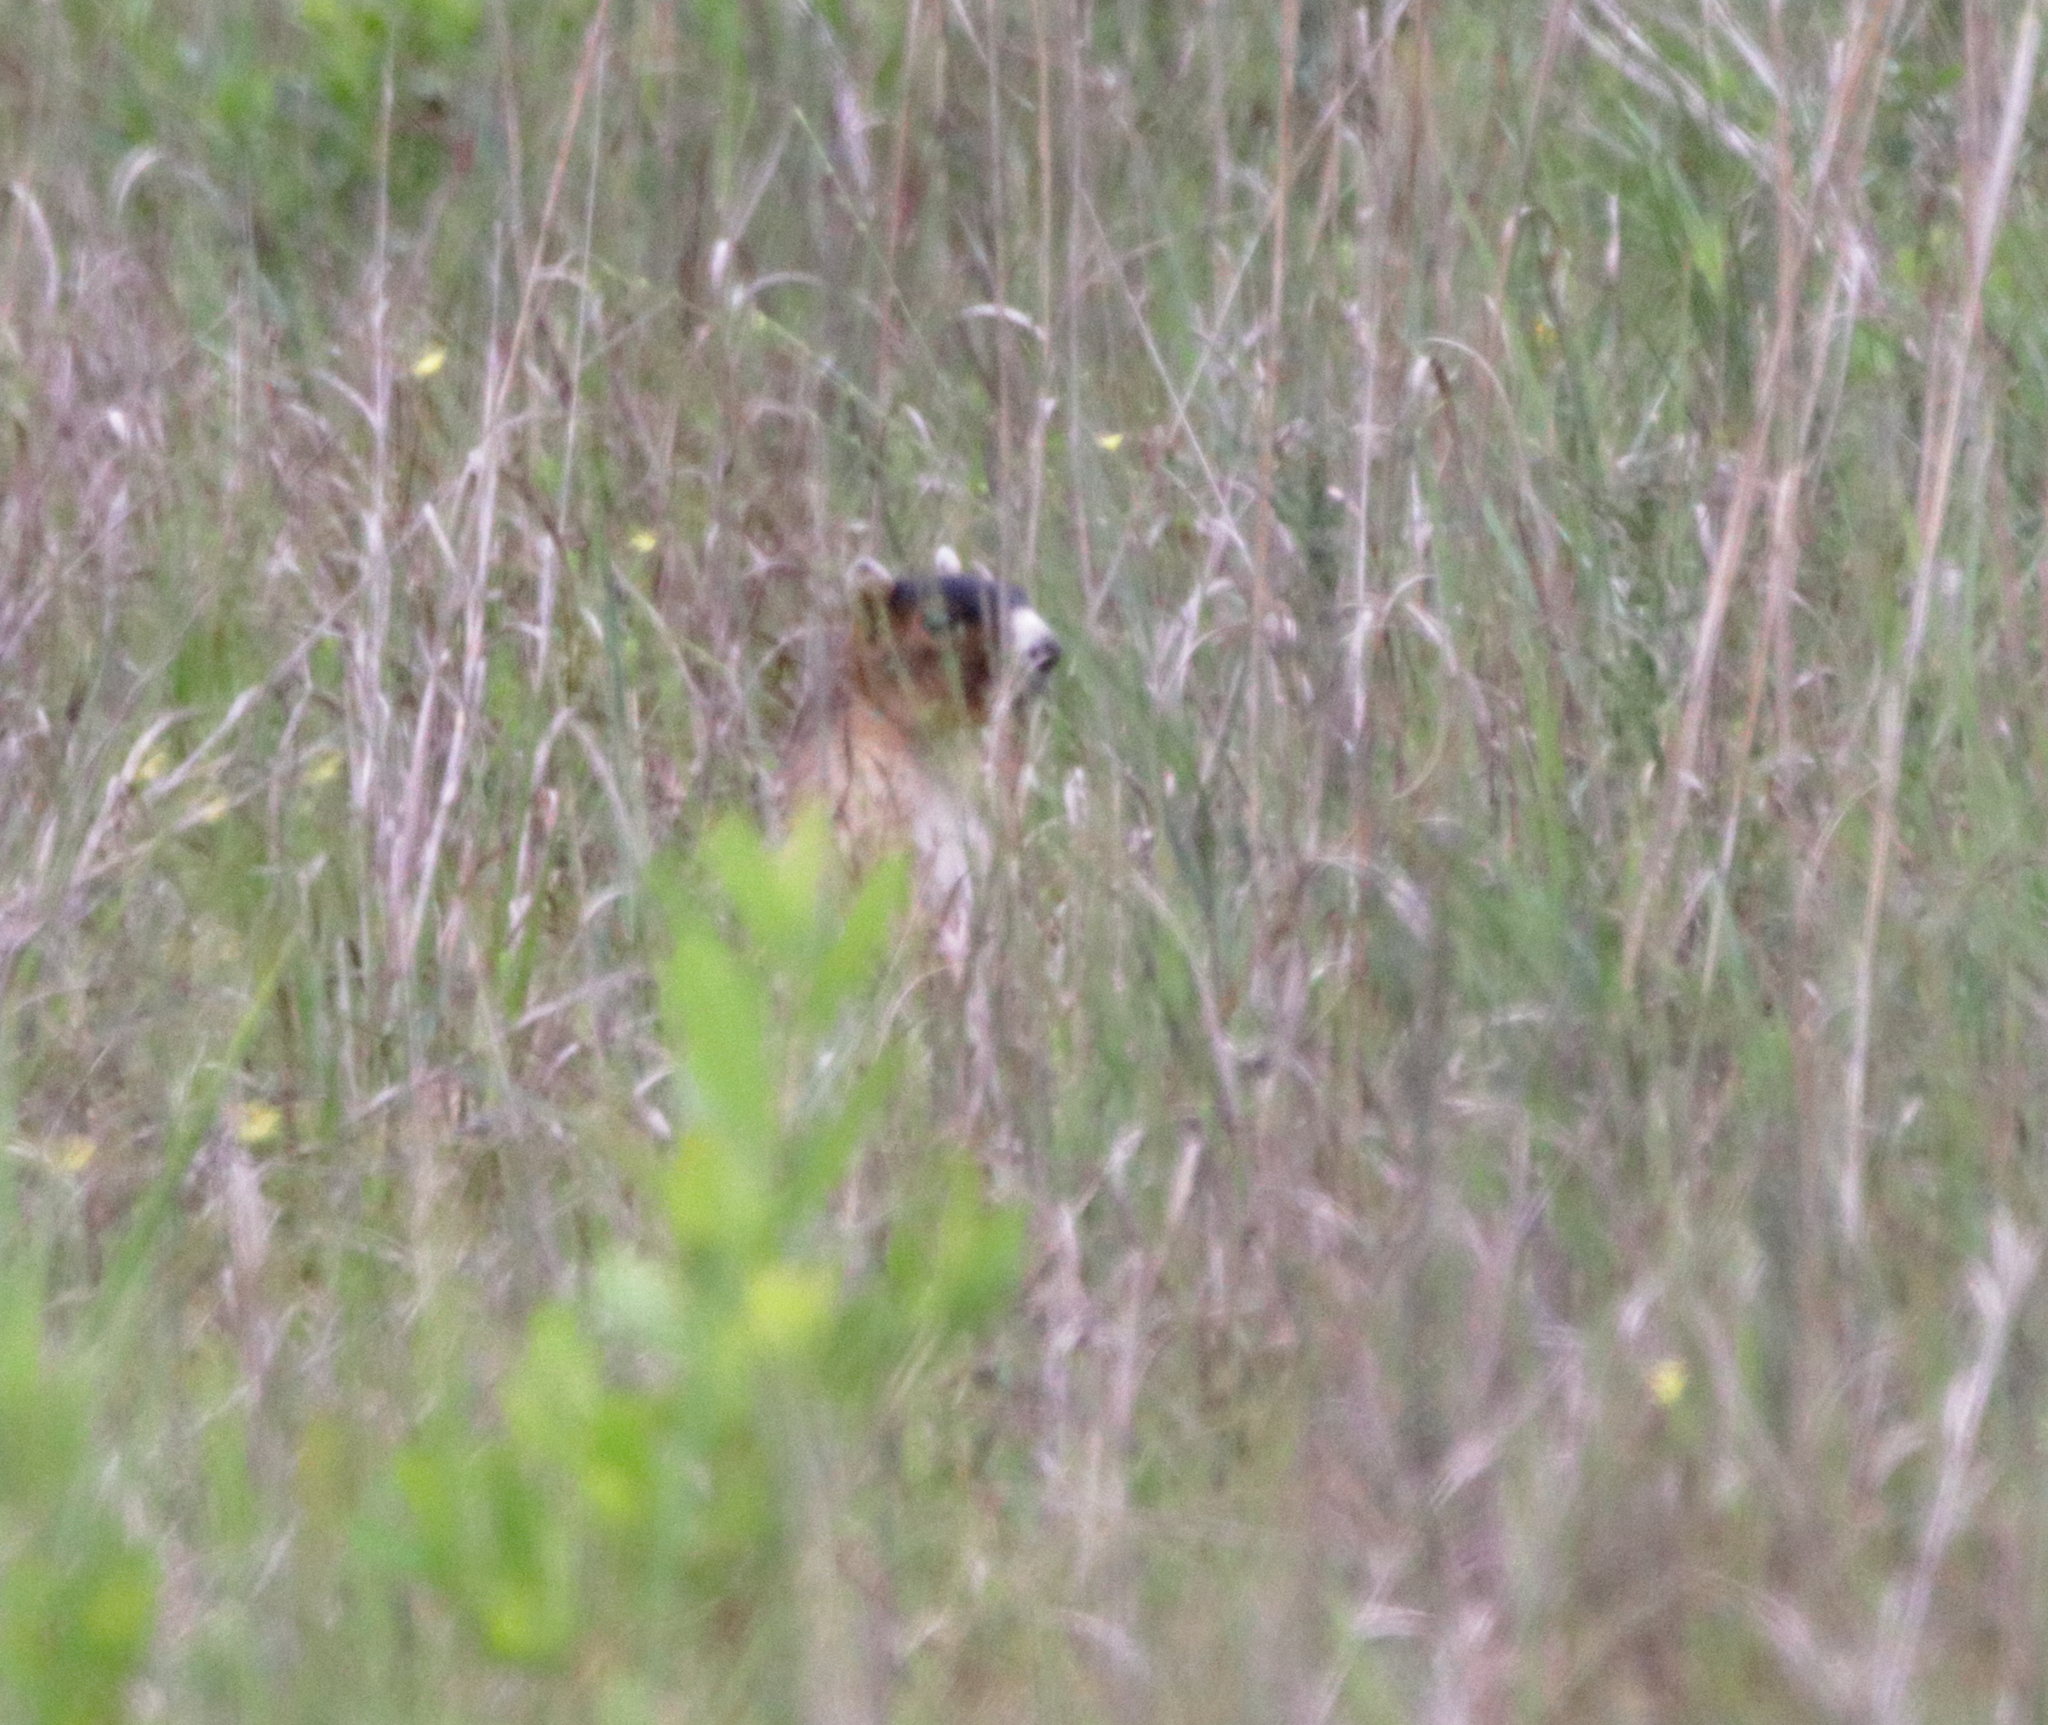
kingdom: Animalia
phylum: Chordata
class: Mammalia
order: Rodentia
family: Sciuridae
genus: Sciurus
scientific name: Sciurus niger
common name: Fox squirrel
